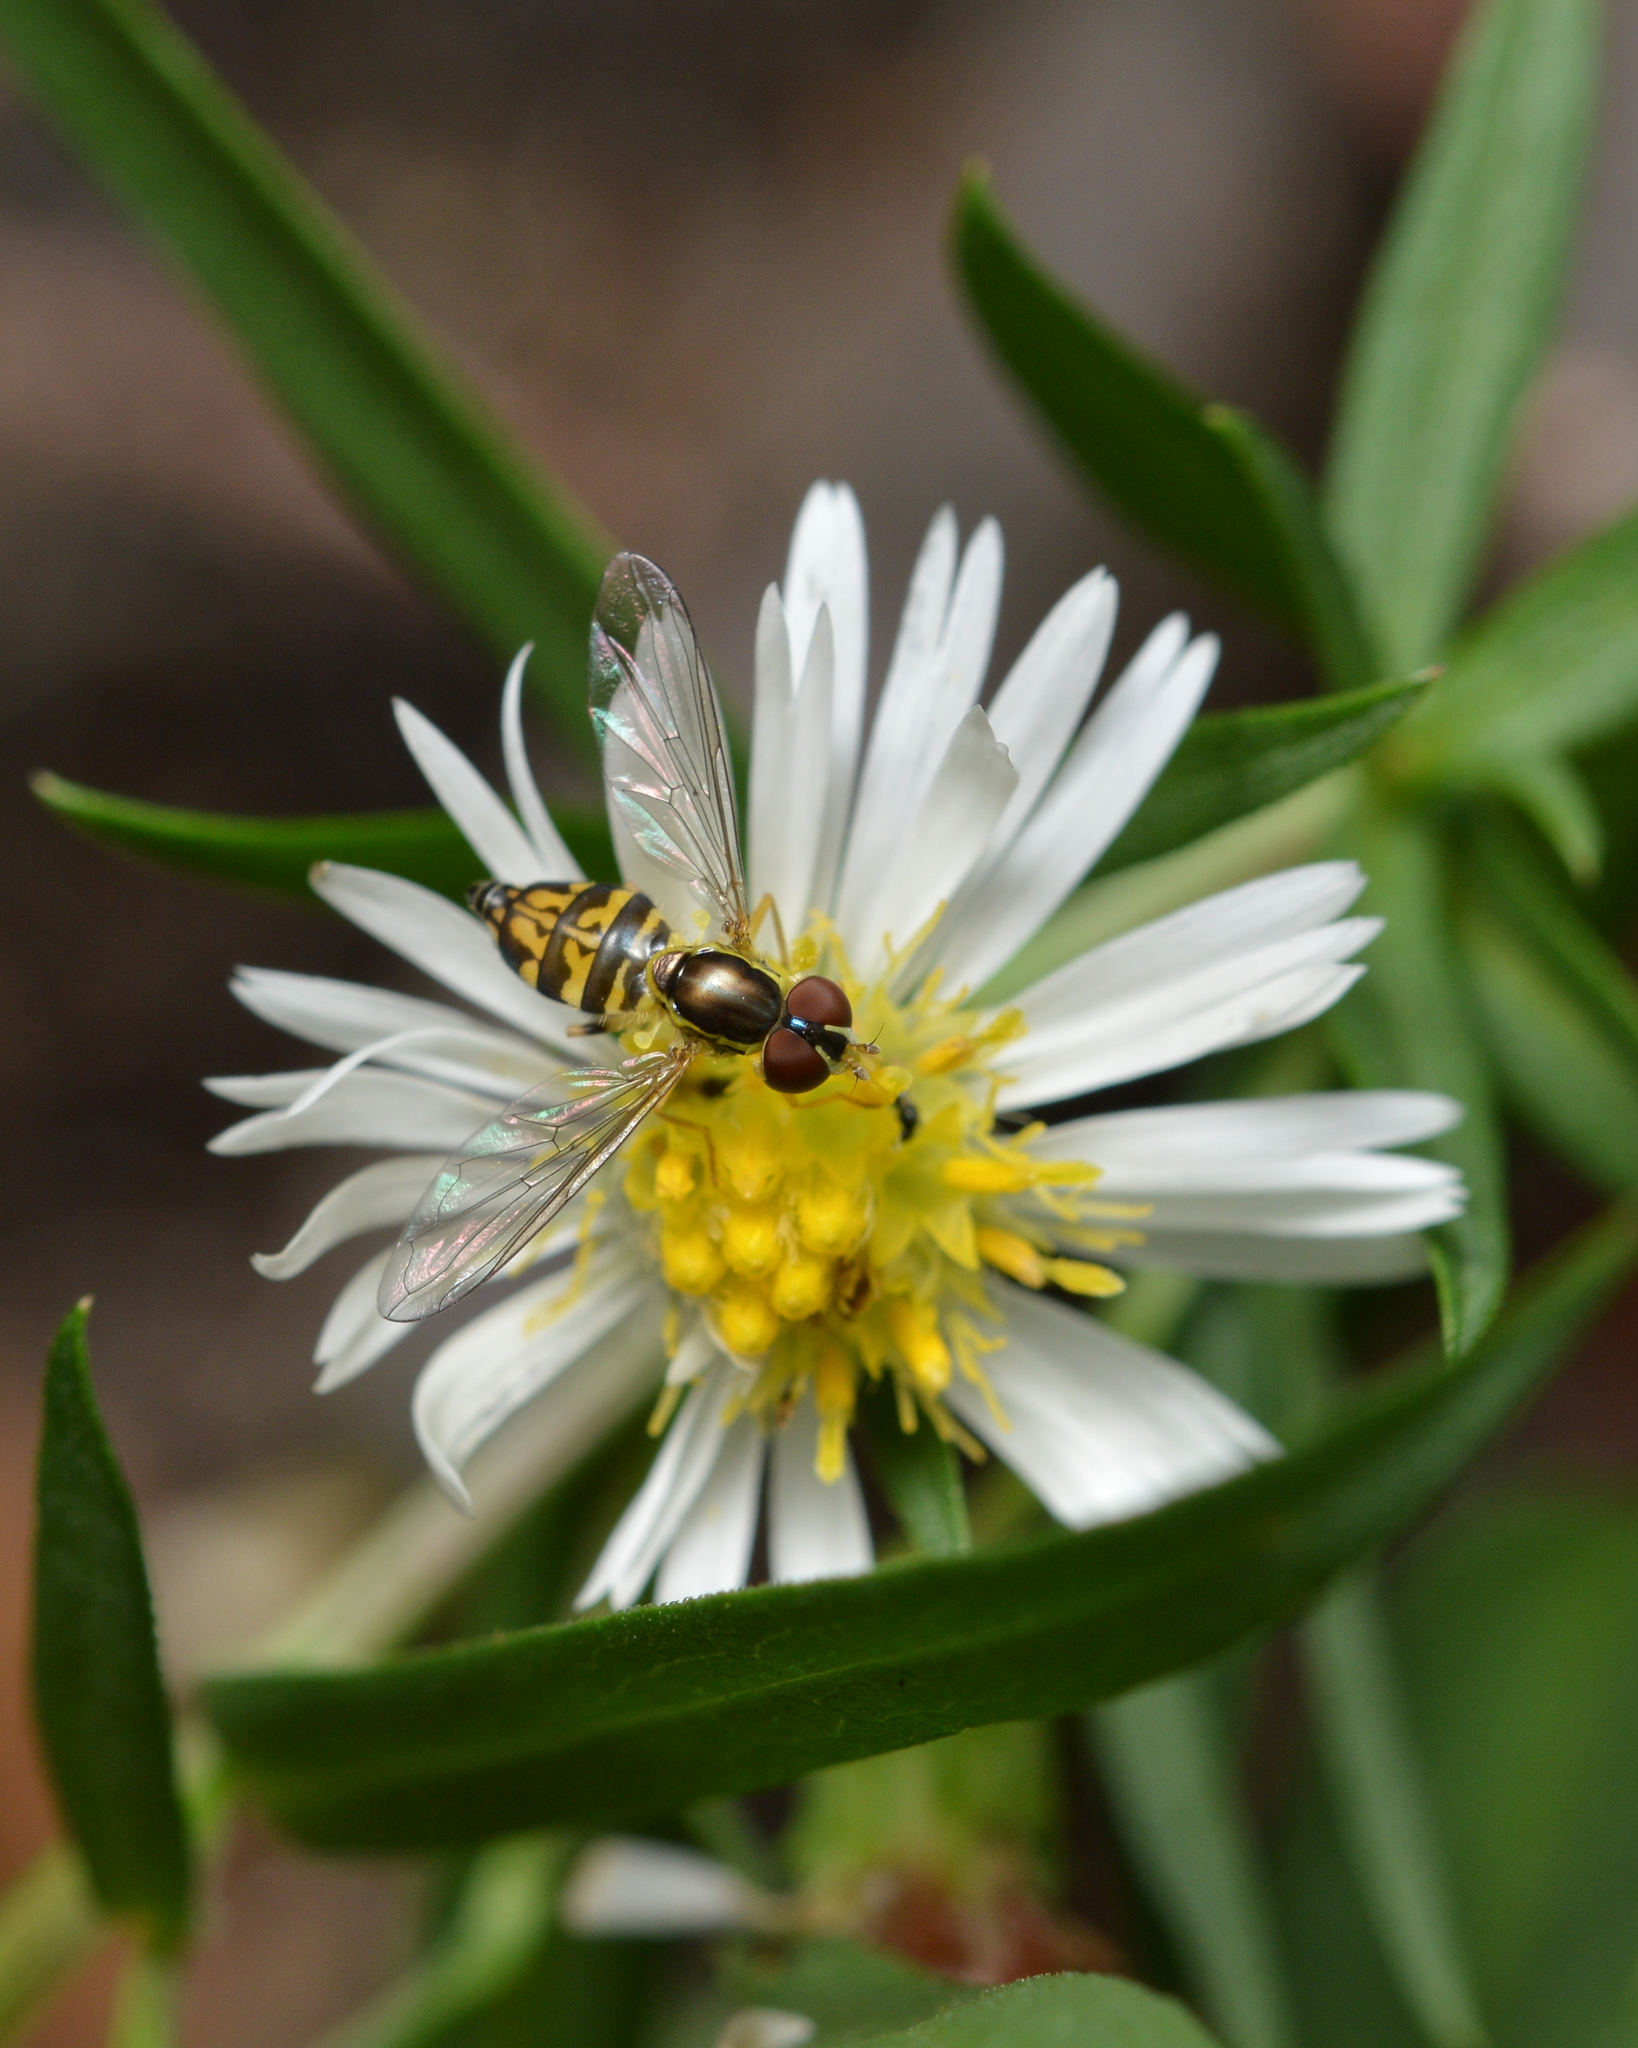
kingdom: Animalia
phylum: Arthropoda
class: Insecta
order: Diptera
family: Syrphidae
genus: Toxomerus
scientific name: Toxomerus geminatus
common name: Eastern calligrapher
